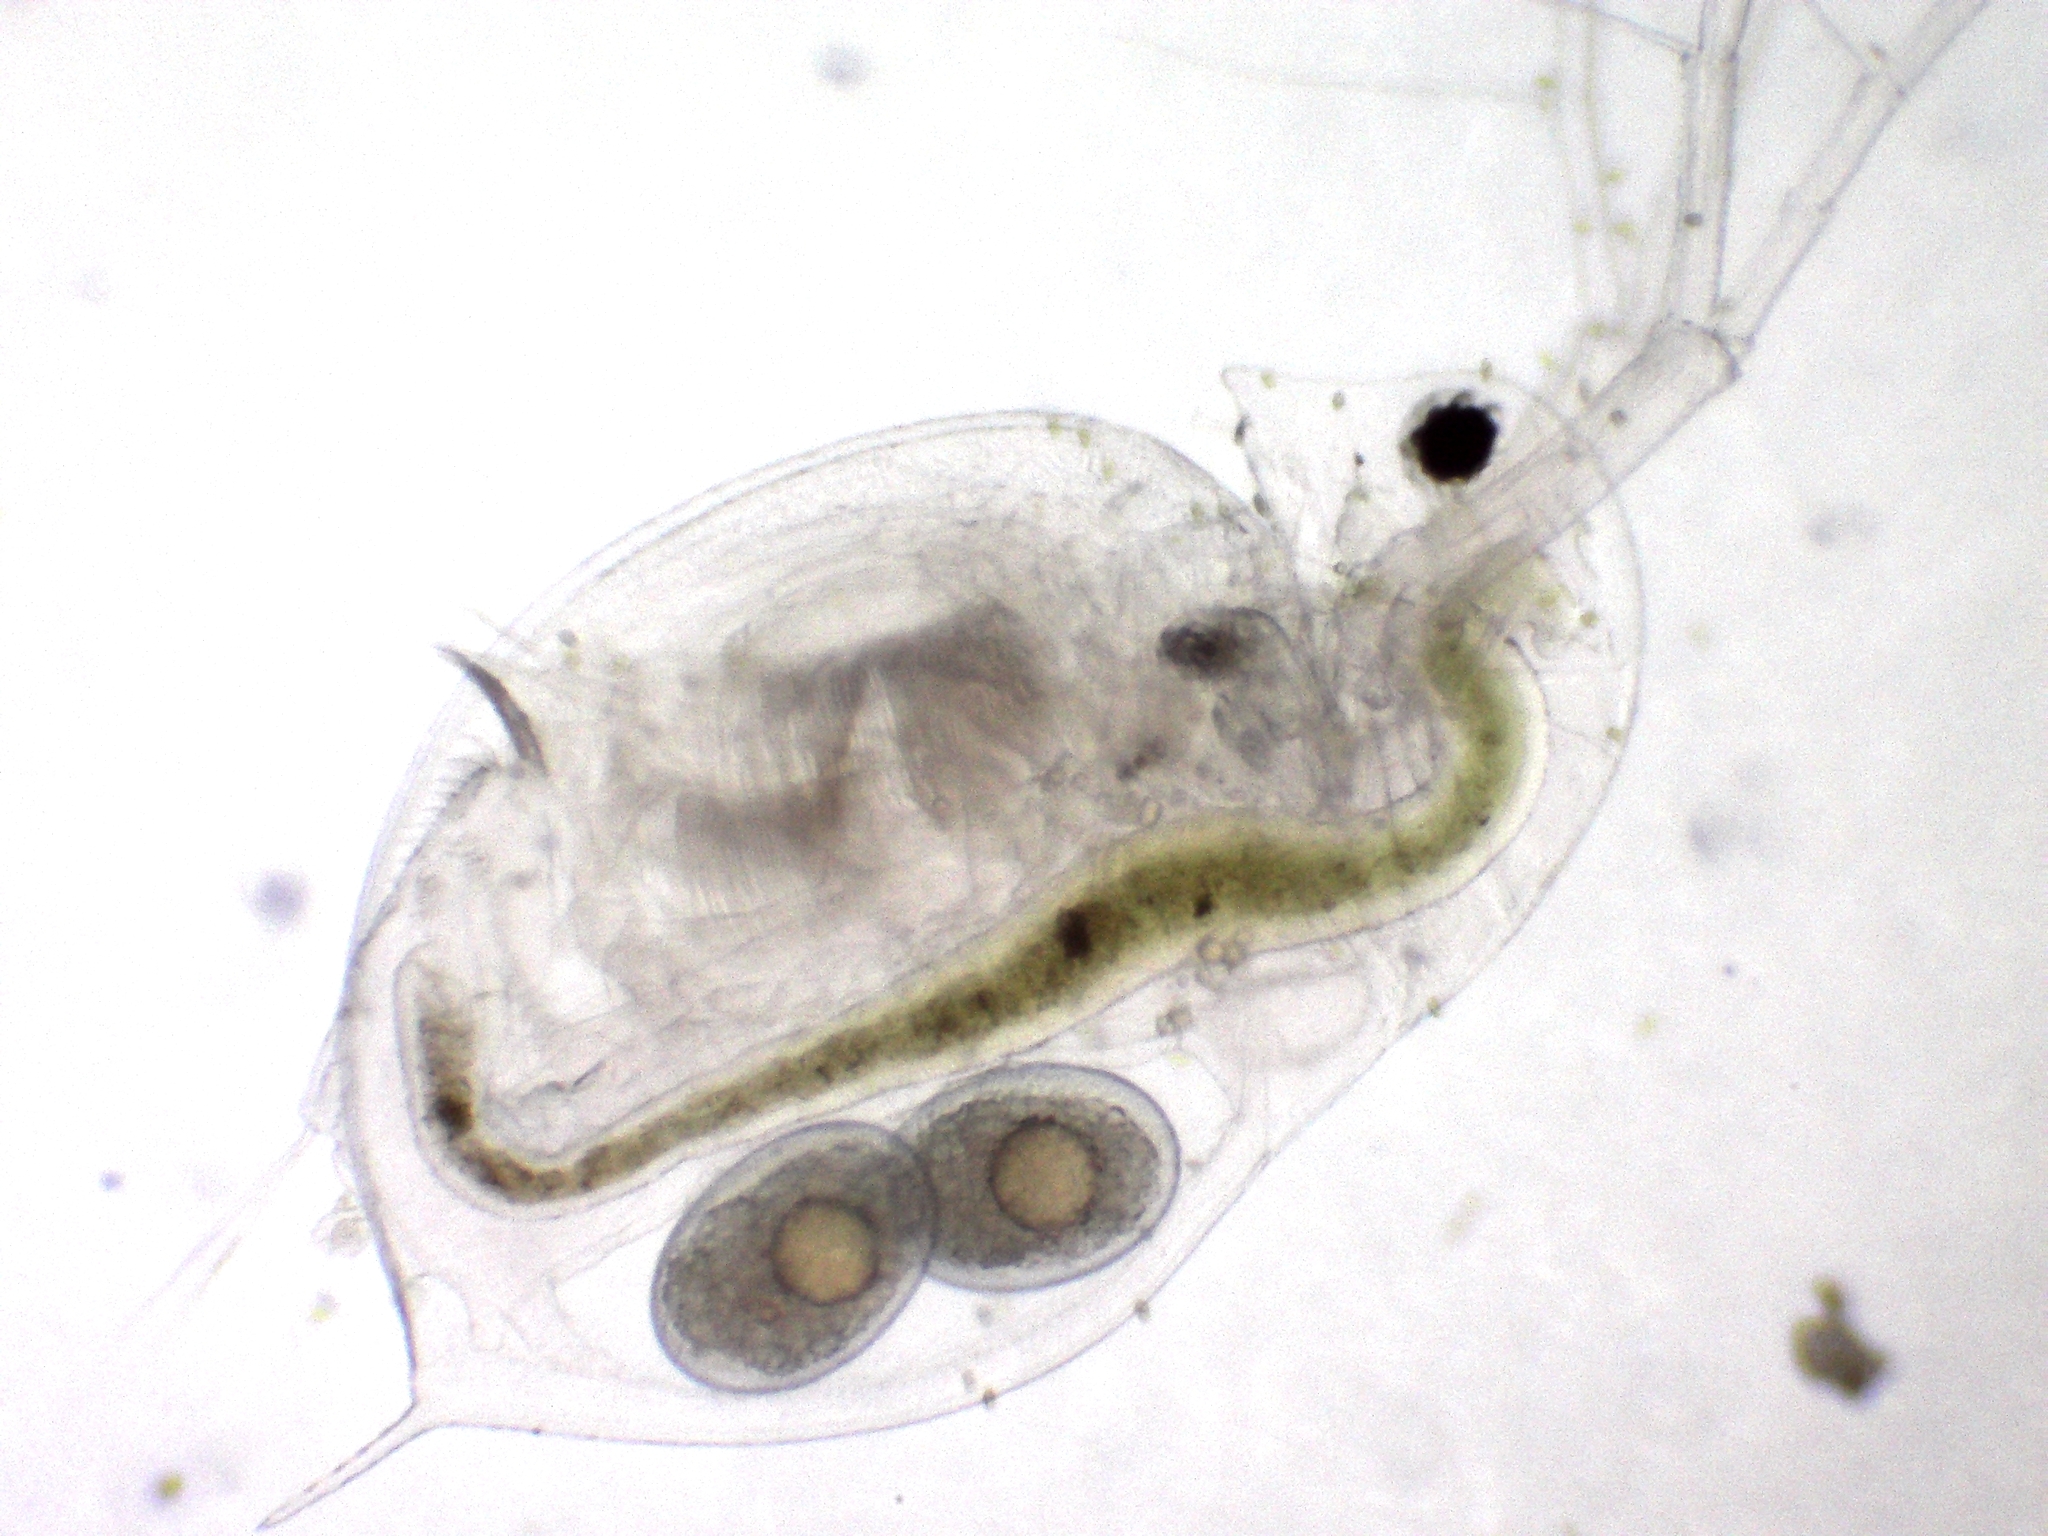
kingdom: Animalia
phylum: Arthropoda
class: Branchiopoda
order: Diplostraca
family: Daphniidae
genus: Daphnia
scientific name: Daphnia galeata
